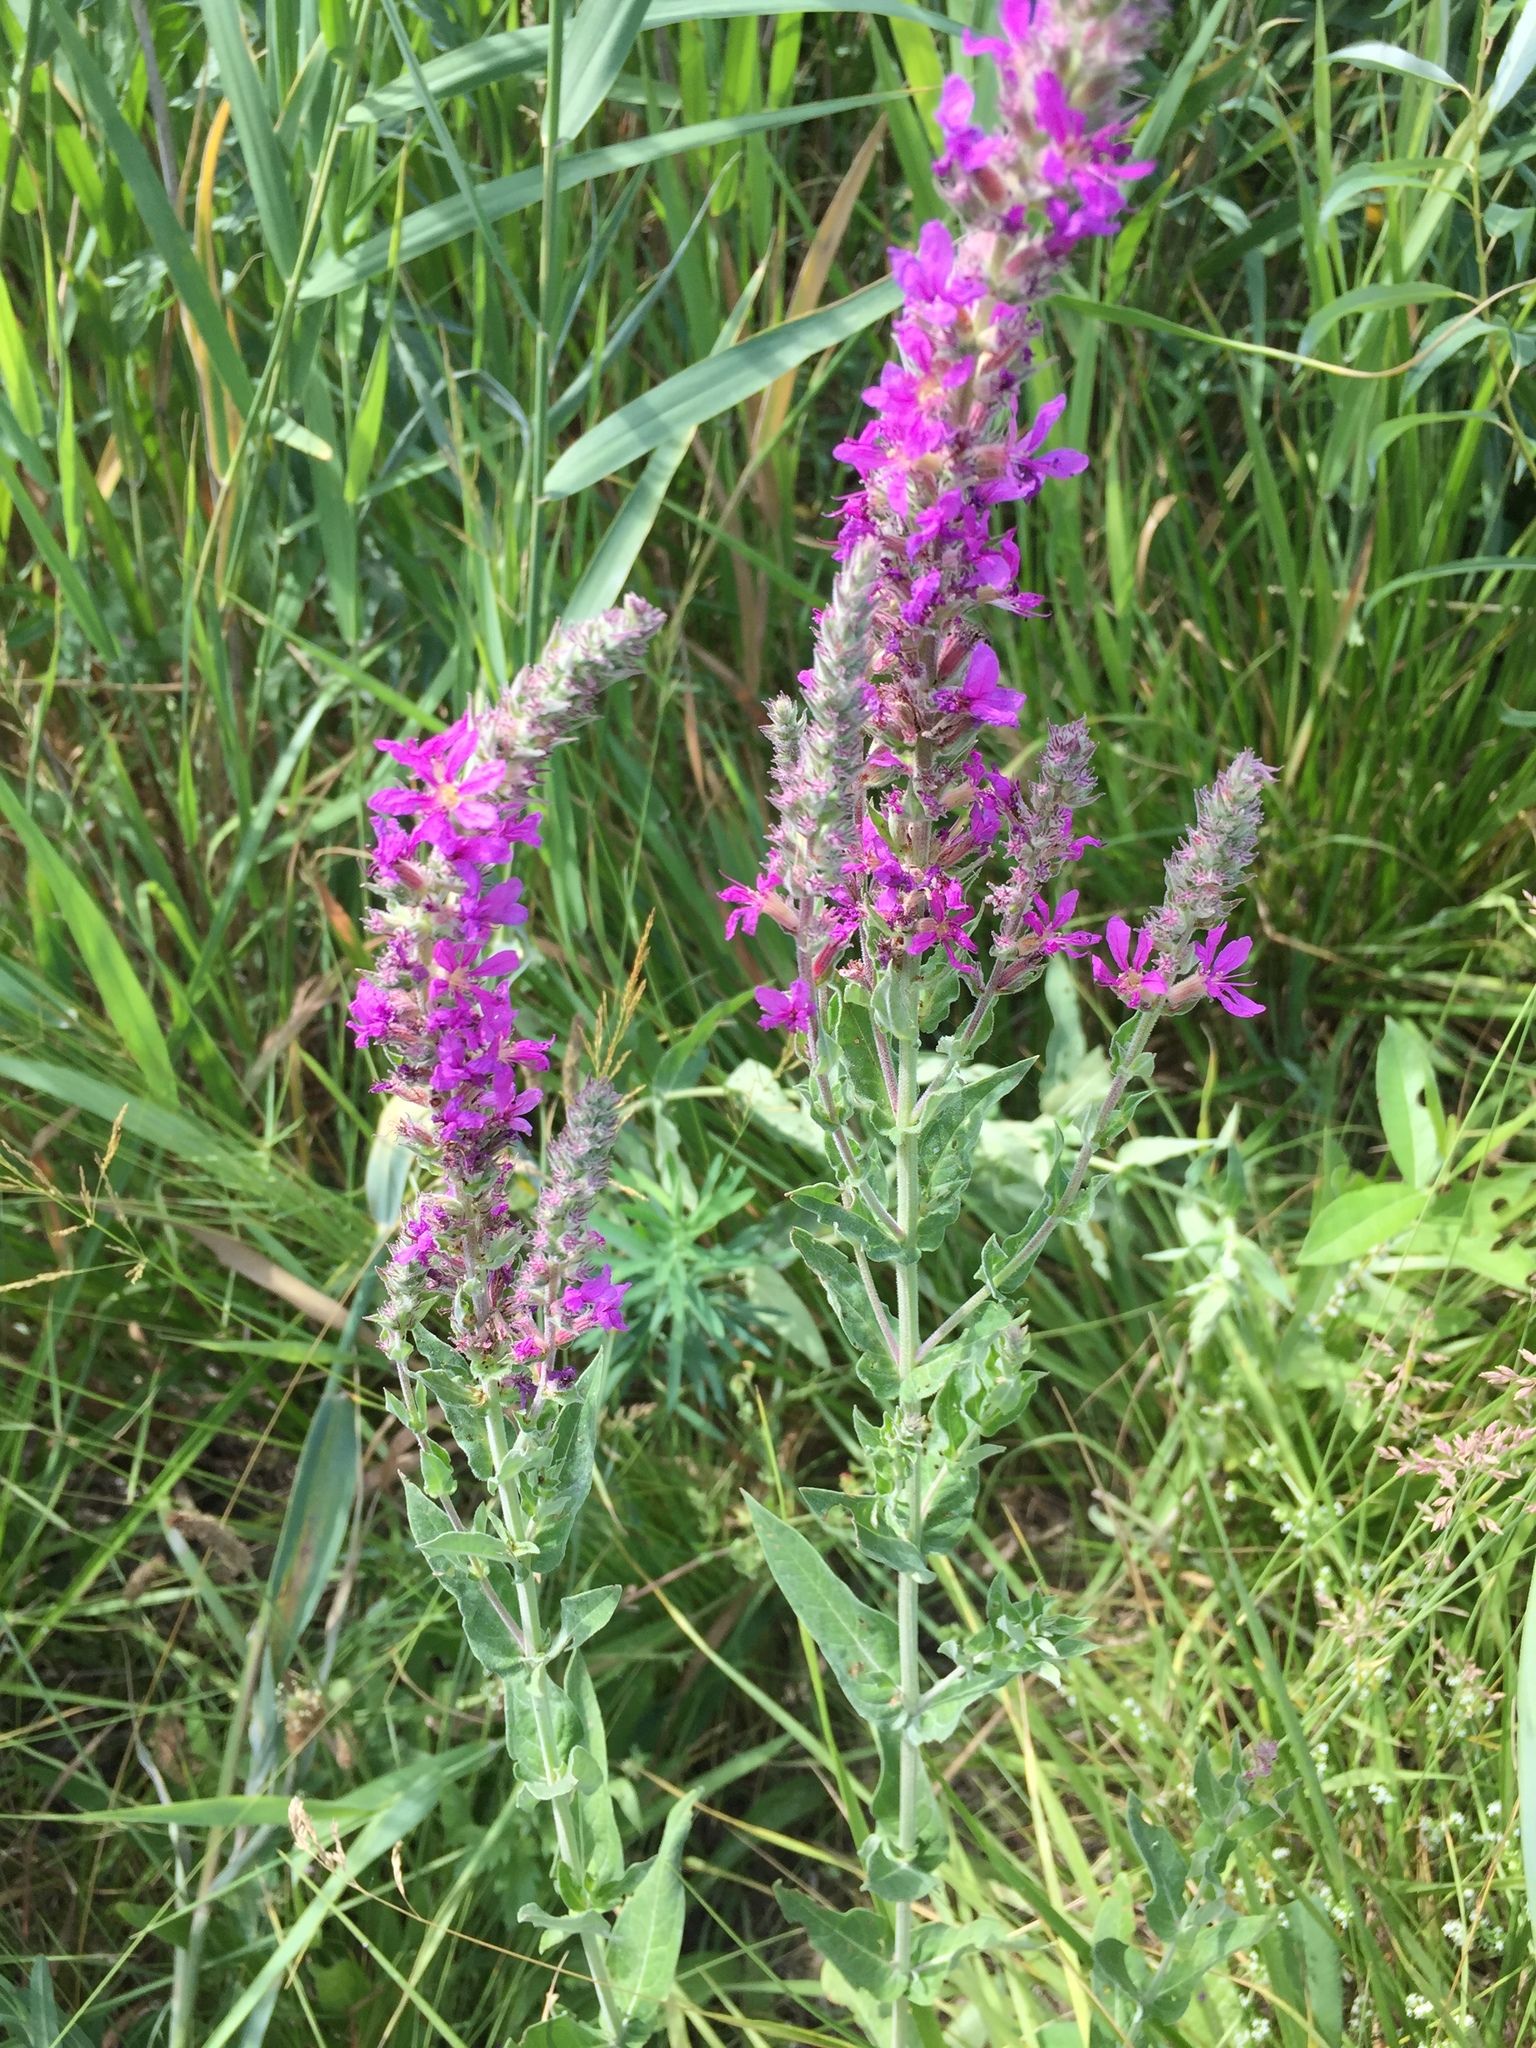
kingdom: Plantae
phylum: Tracheophyta
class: Magnoliopsida
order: Lamiales
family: Lamiaceae
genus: Stachys
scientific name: Stachys palustris
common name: Marsh woundwort
